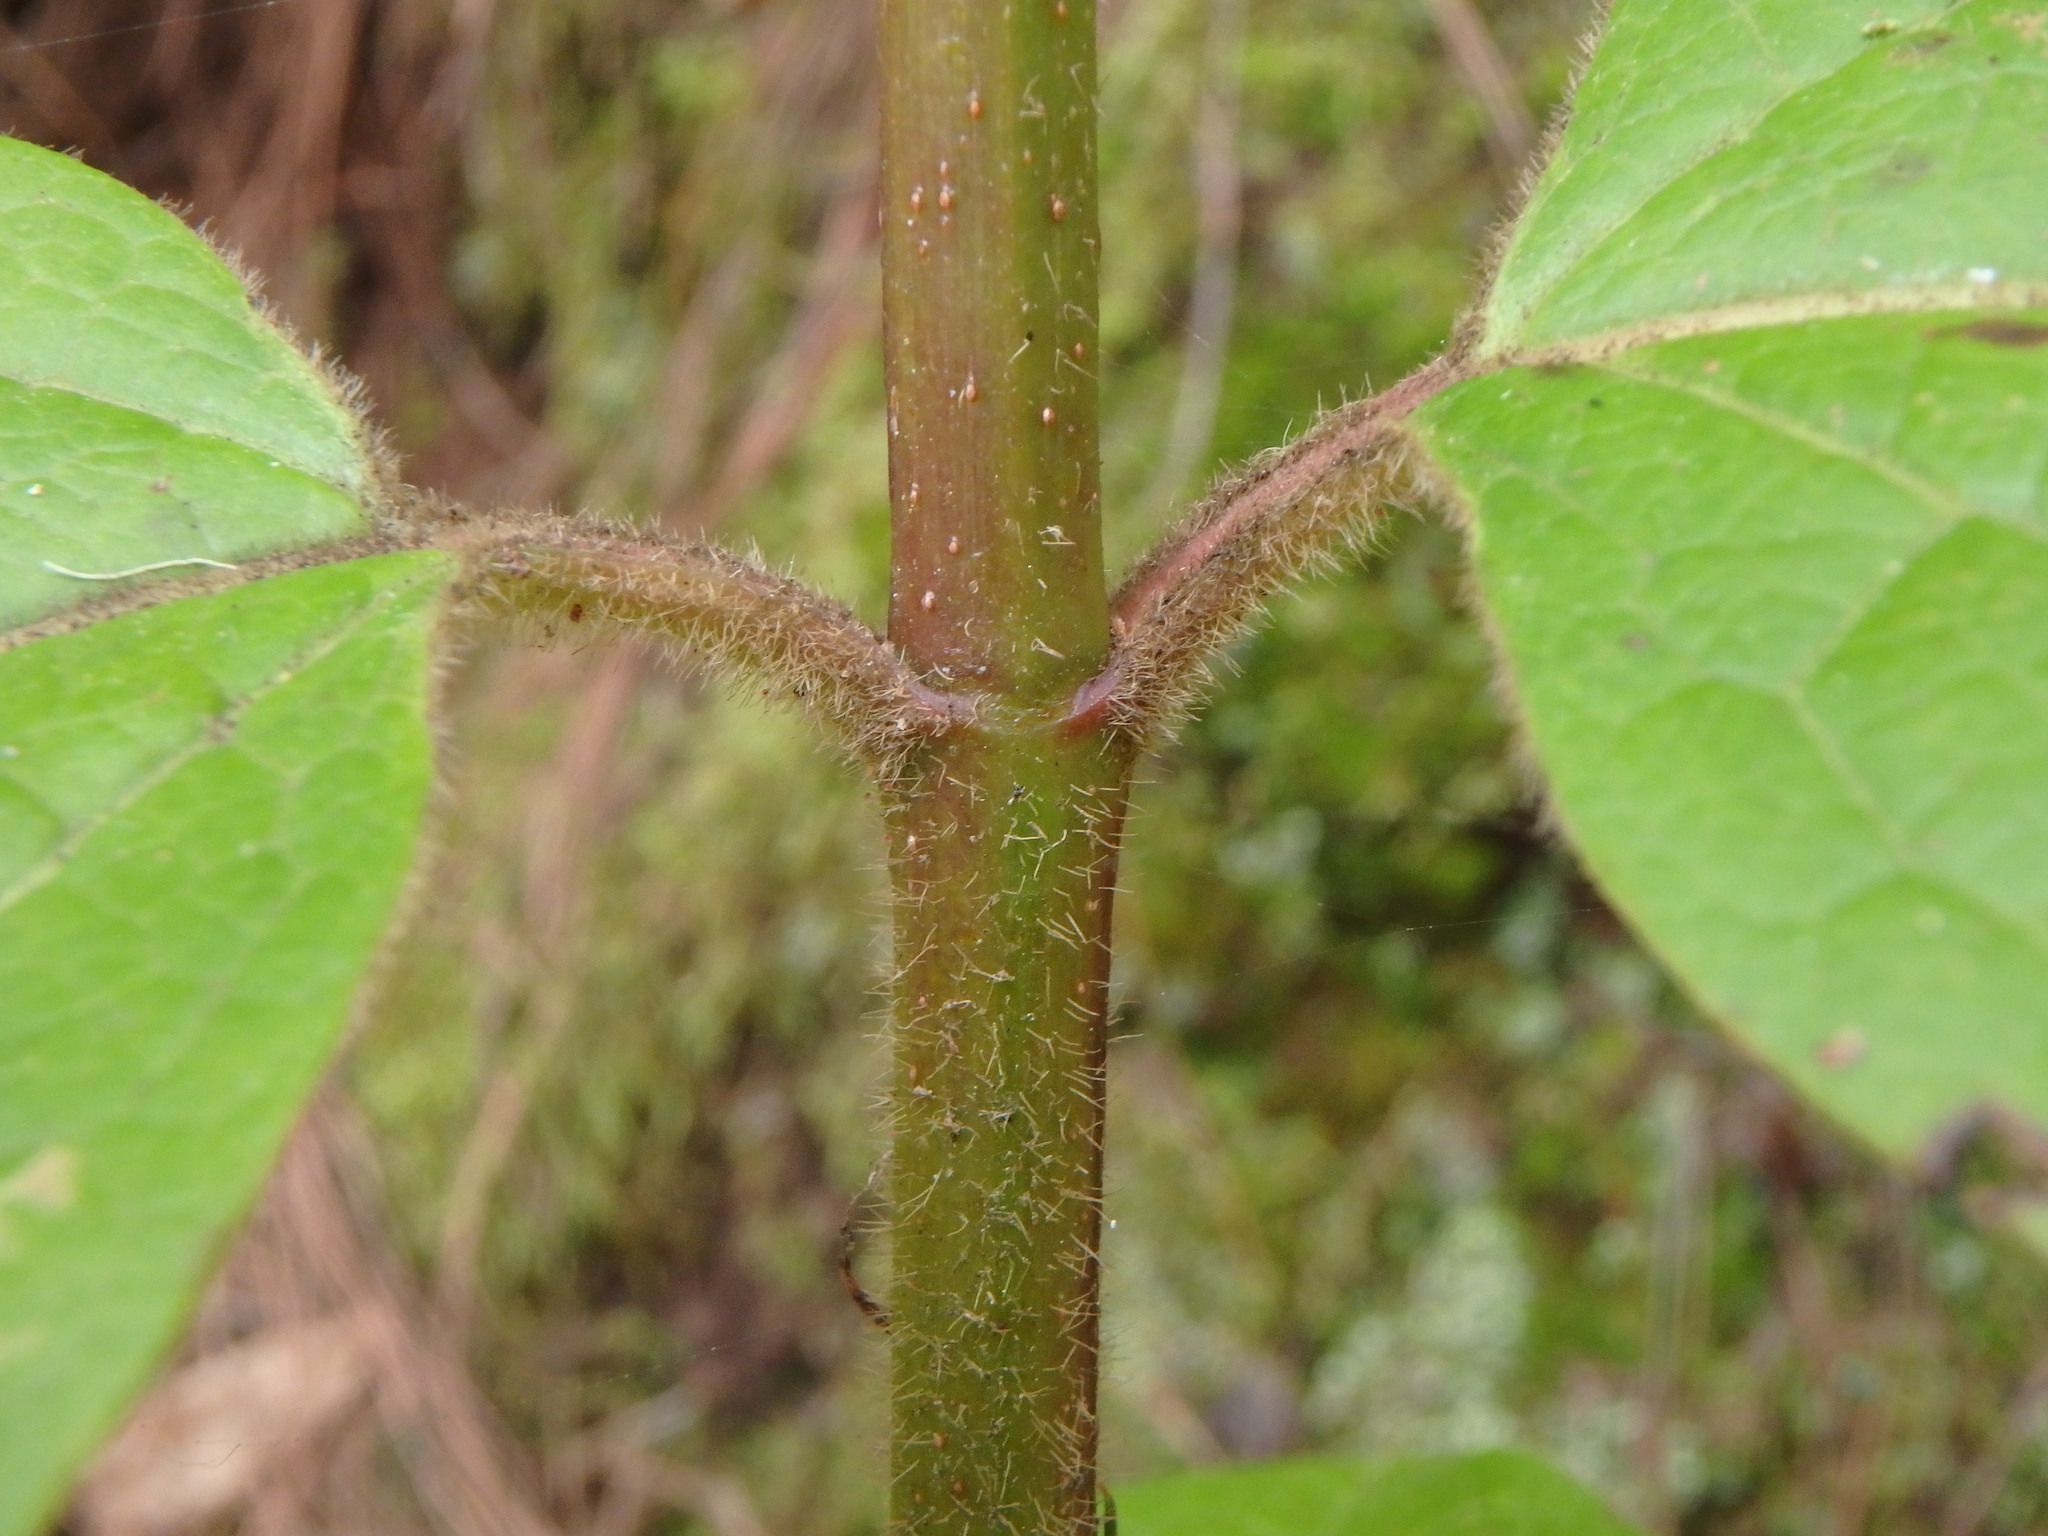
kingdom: Plantae
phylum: Tracheophyta
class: Magnoliopsida
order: Dipsacales
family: Viburnaceae
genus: Viburnum
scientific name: Viburnum rugosum
